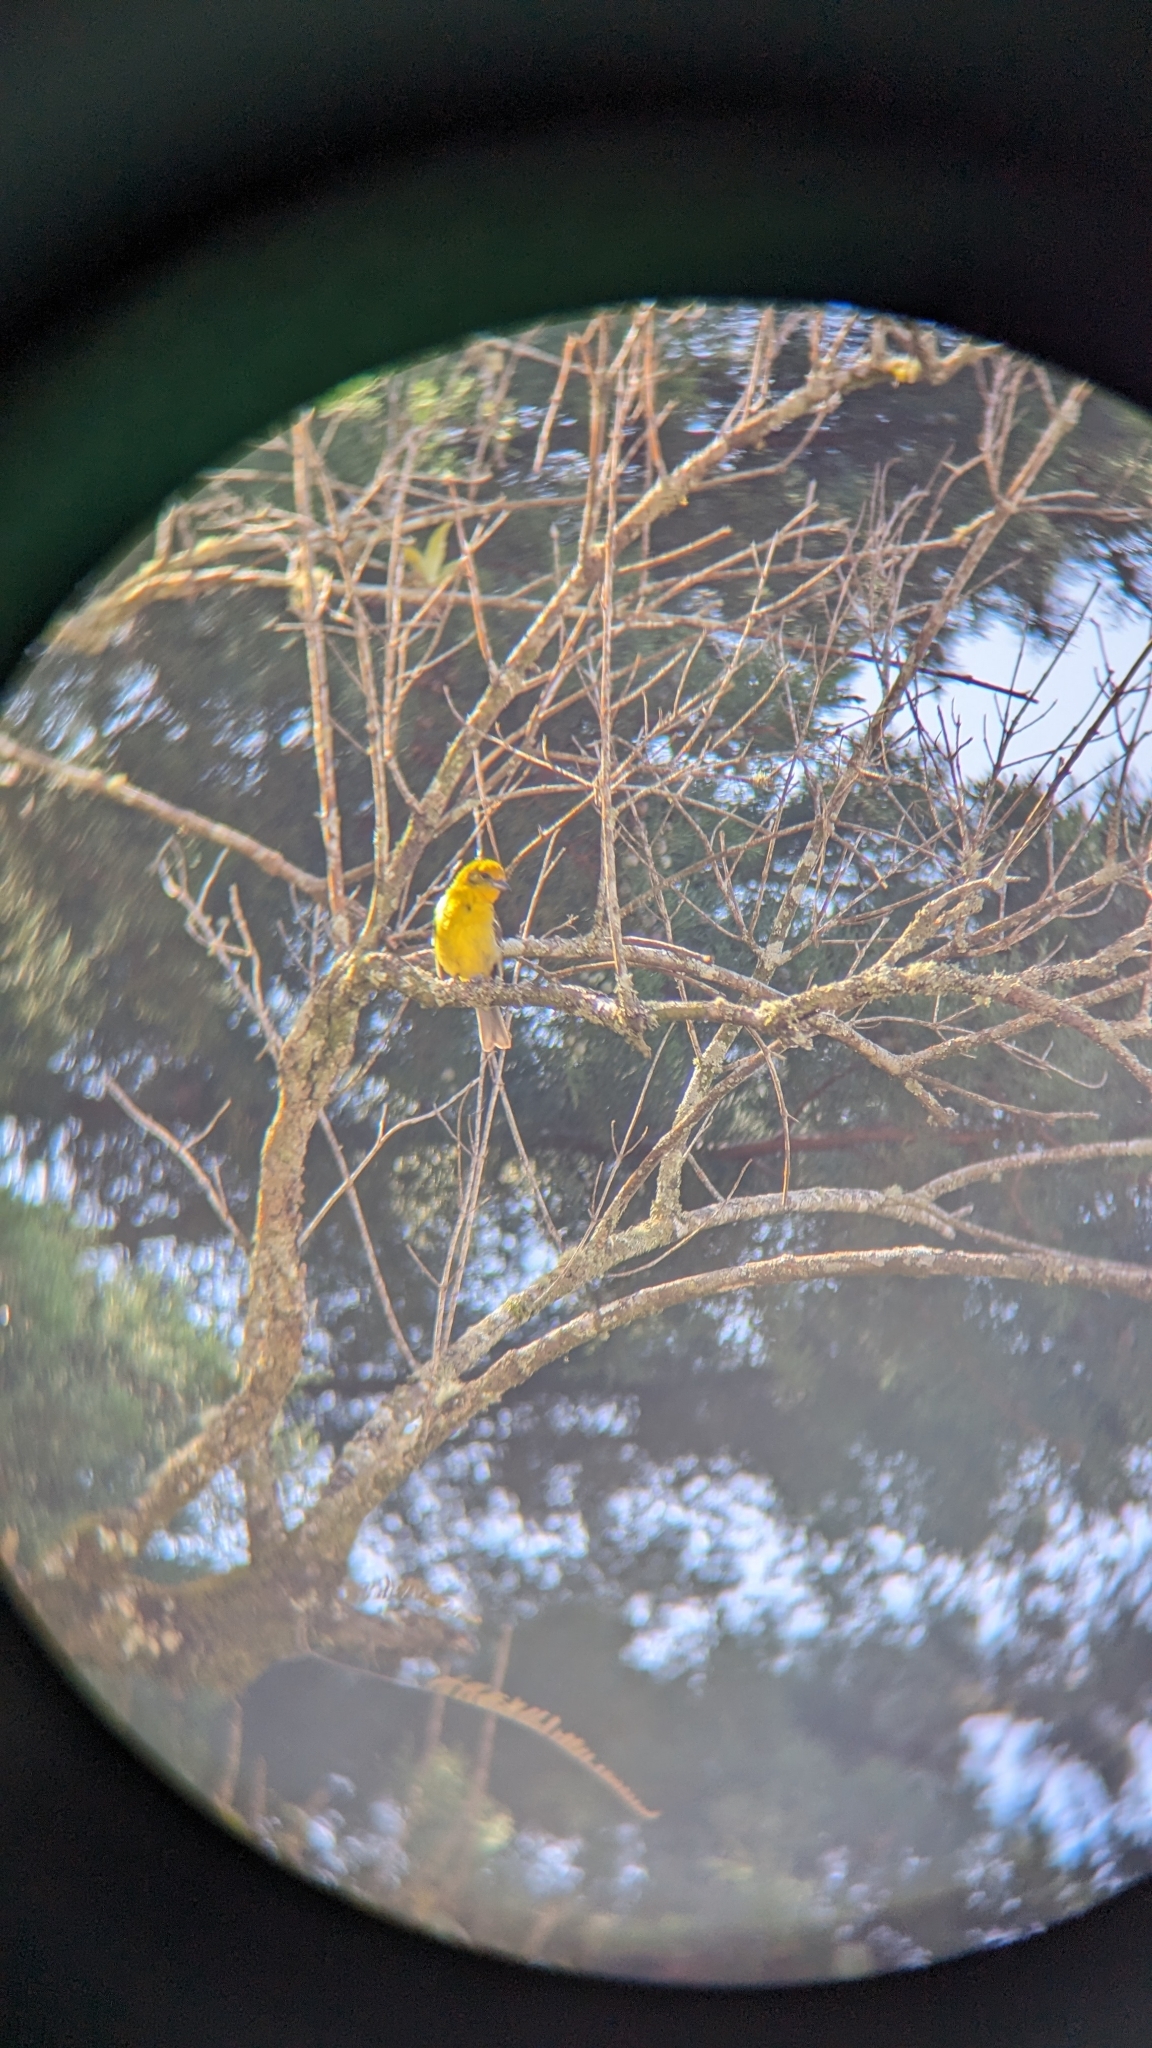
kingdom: Animalia
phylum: Chordata
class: Aves
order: Passeriformes
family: Cardinalidae
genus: Piranga
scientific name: Piranga bidentata
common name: Flame-colored tanager
